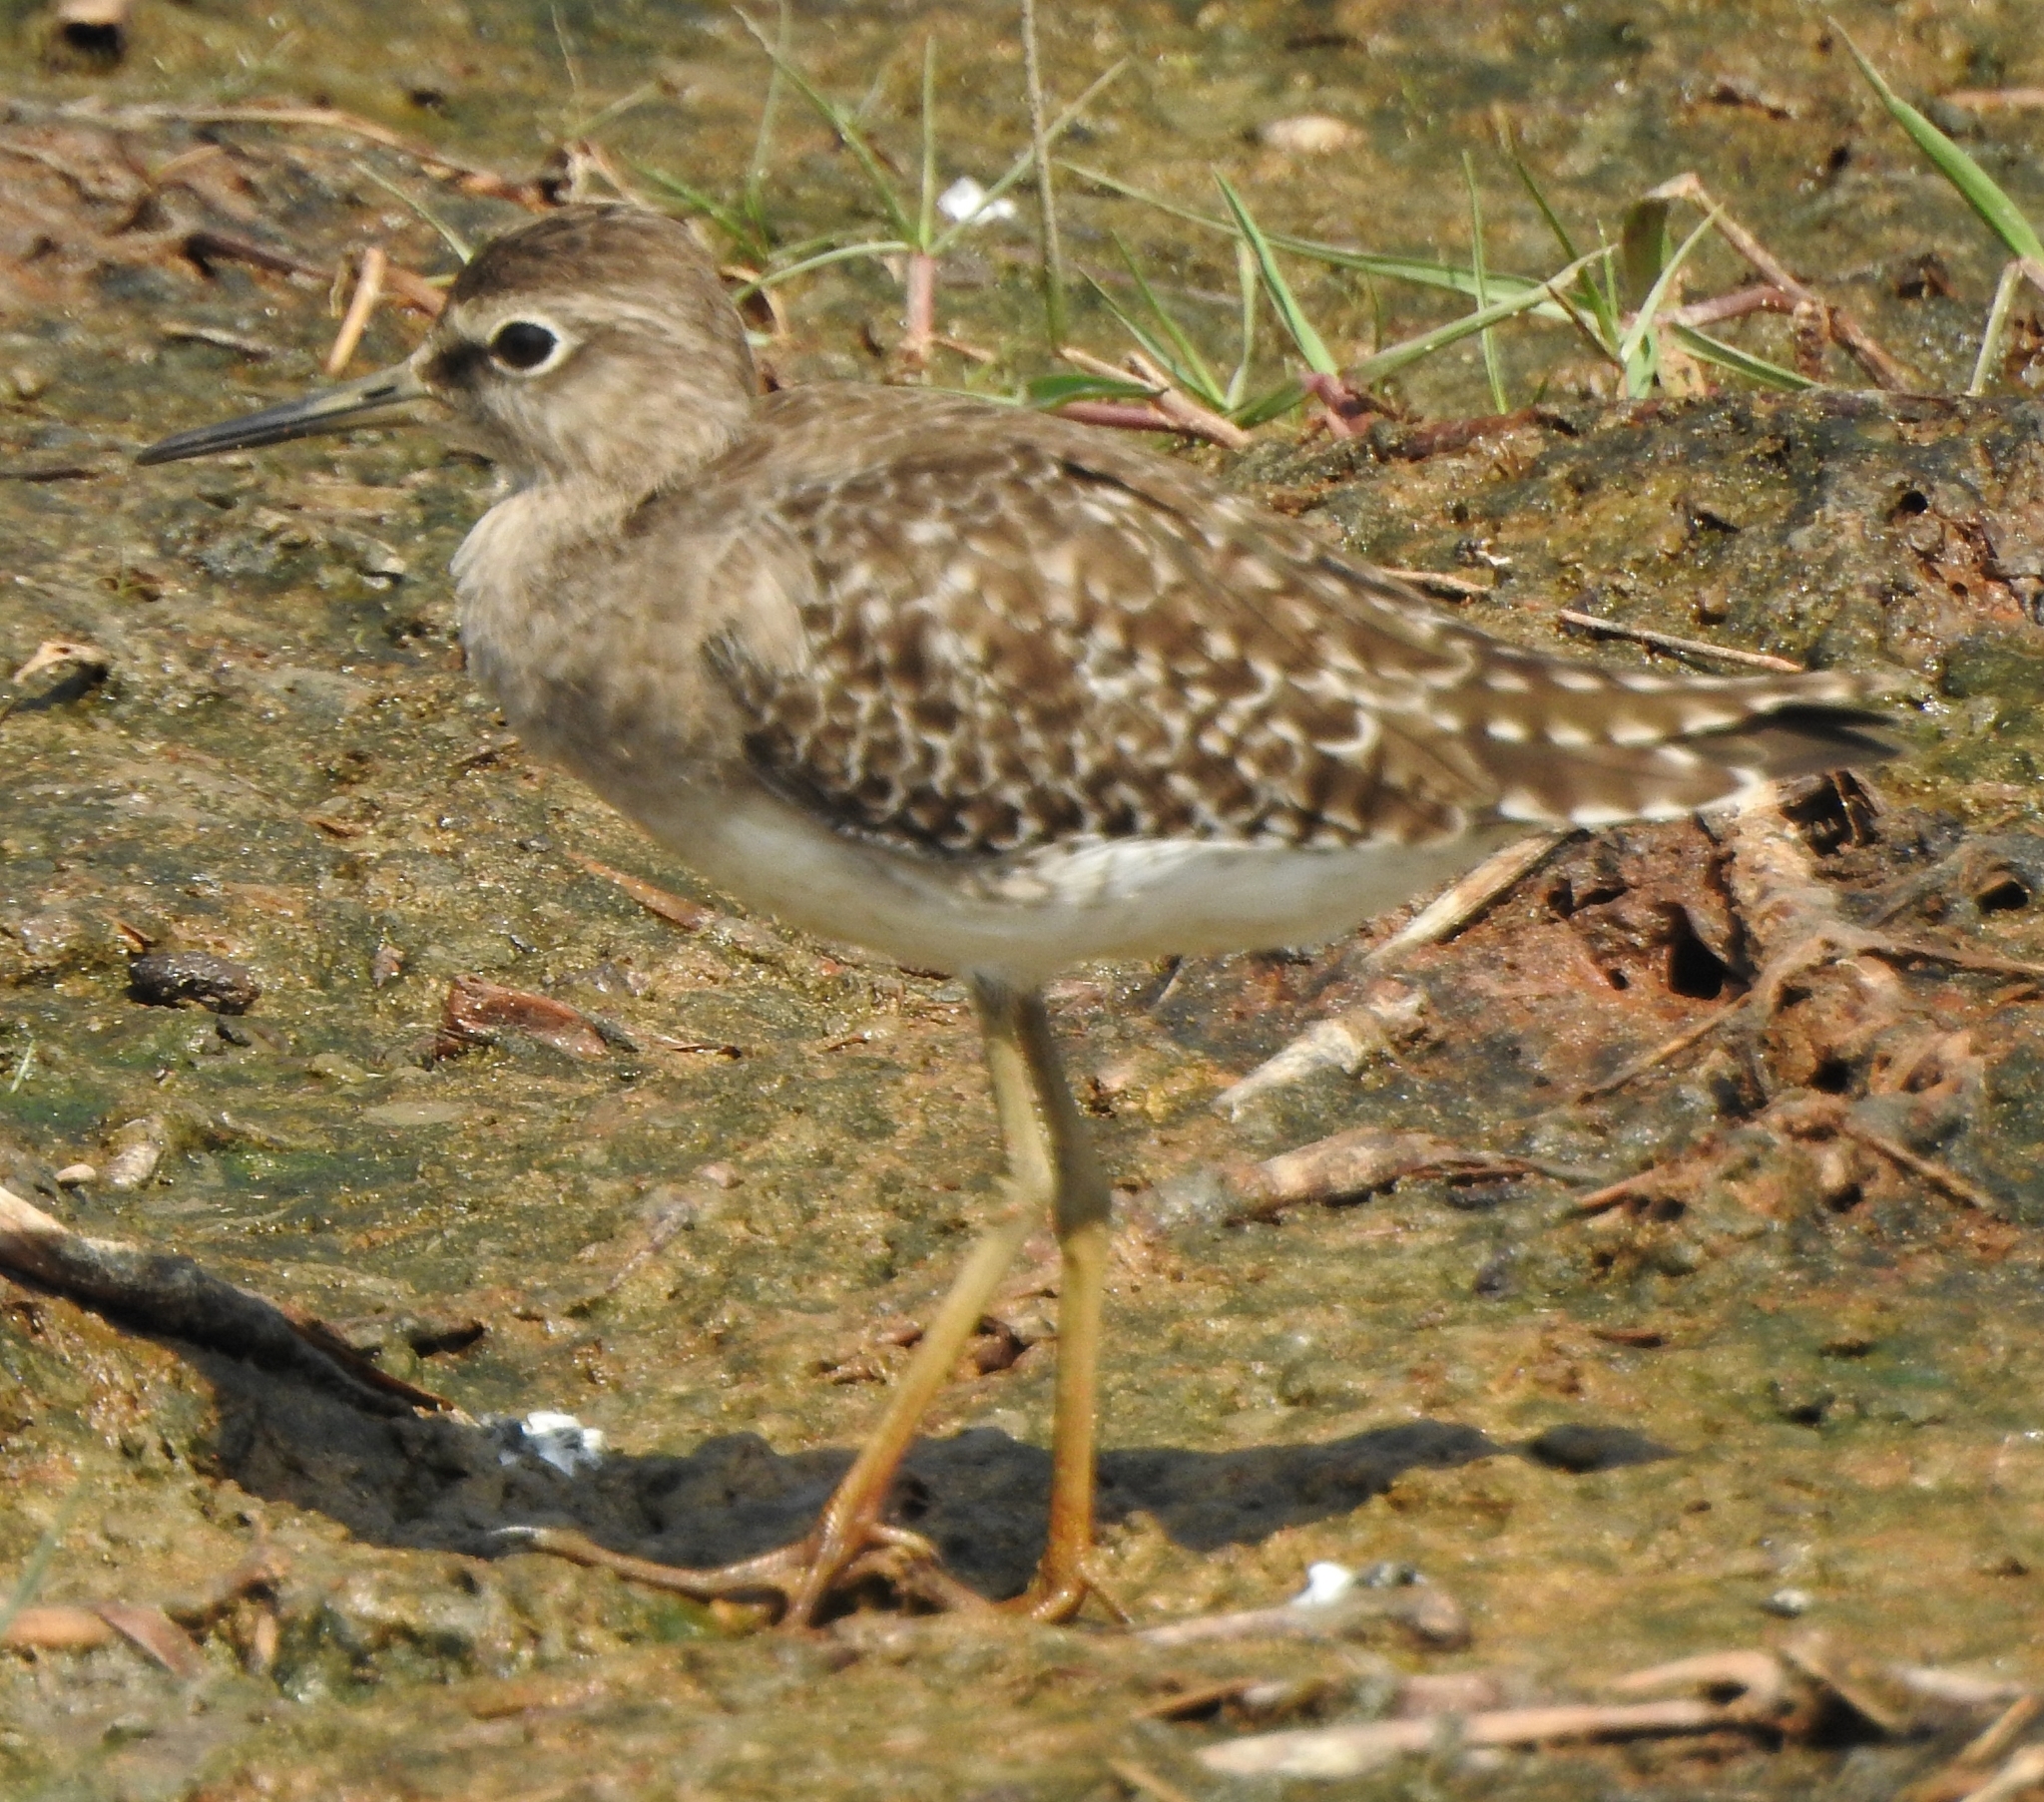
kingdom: Animalia
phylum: Chordata
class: Aves
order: Charadriiformes
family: Scolopacidae
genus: Tringa
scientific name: Tringa glareola
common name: Wood sandpiper
